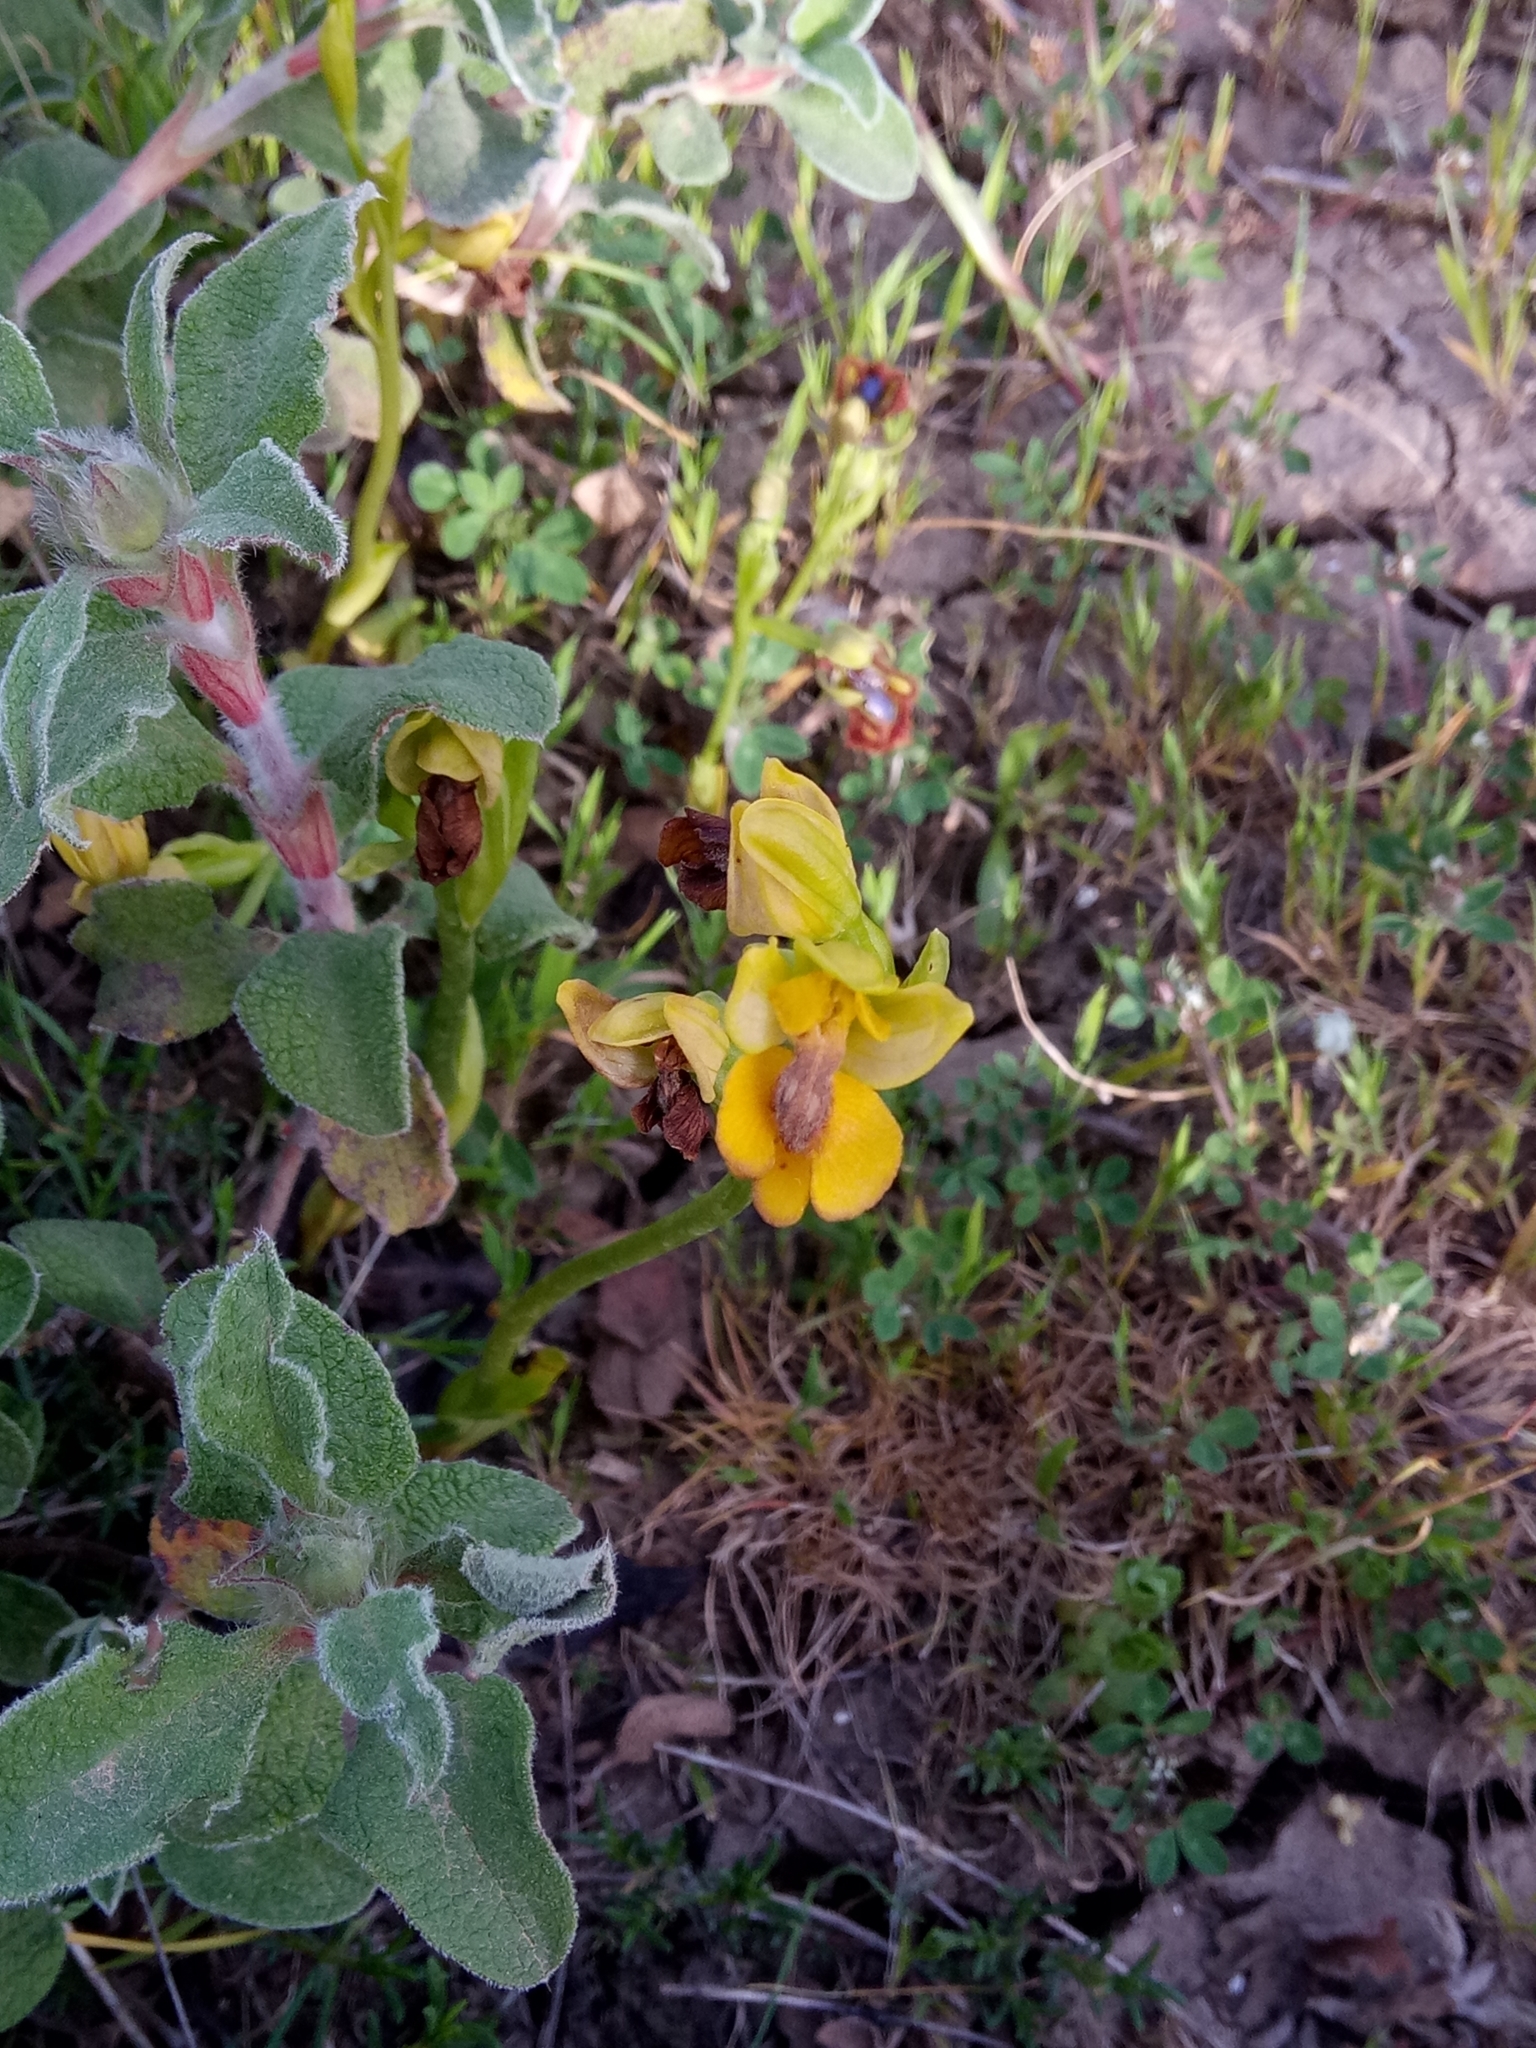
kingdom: Plantae
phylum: Tracheophyta
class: Liliopsida
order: Asparagales
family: Orchidaceae
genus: Ophrys
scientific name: Ophrys lutea
